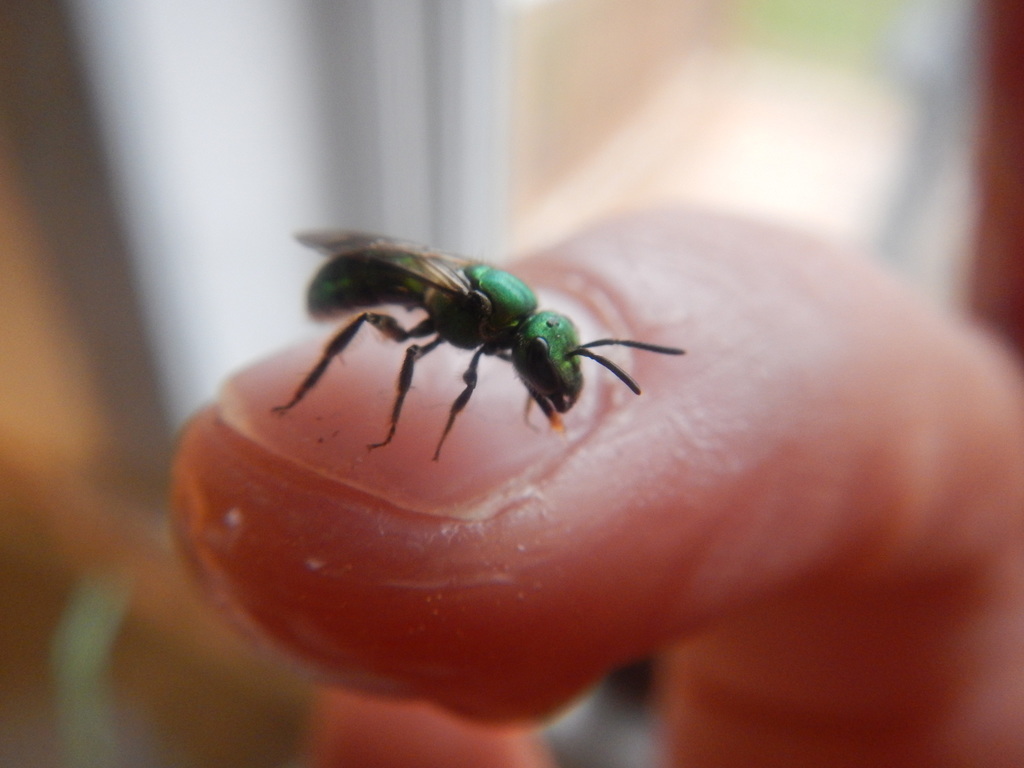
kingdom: Animalia
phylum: Arthropoda
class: Insecta
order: Hymenoptera
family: Halictidae
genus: Augochlora
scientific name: Augochlora pura
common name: Pure green sweat bee
